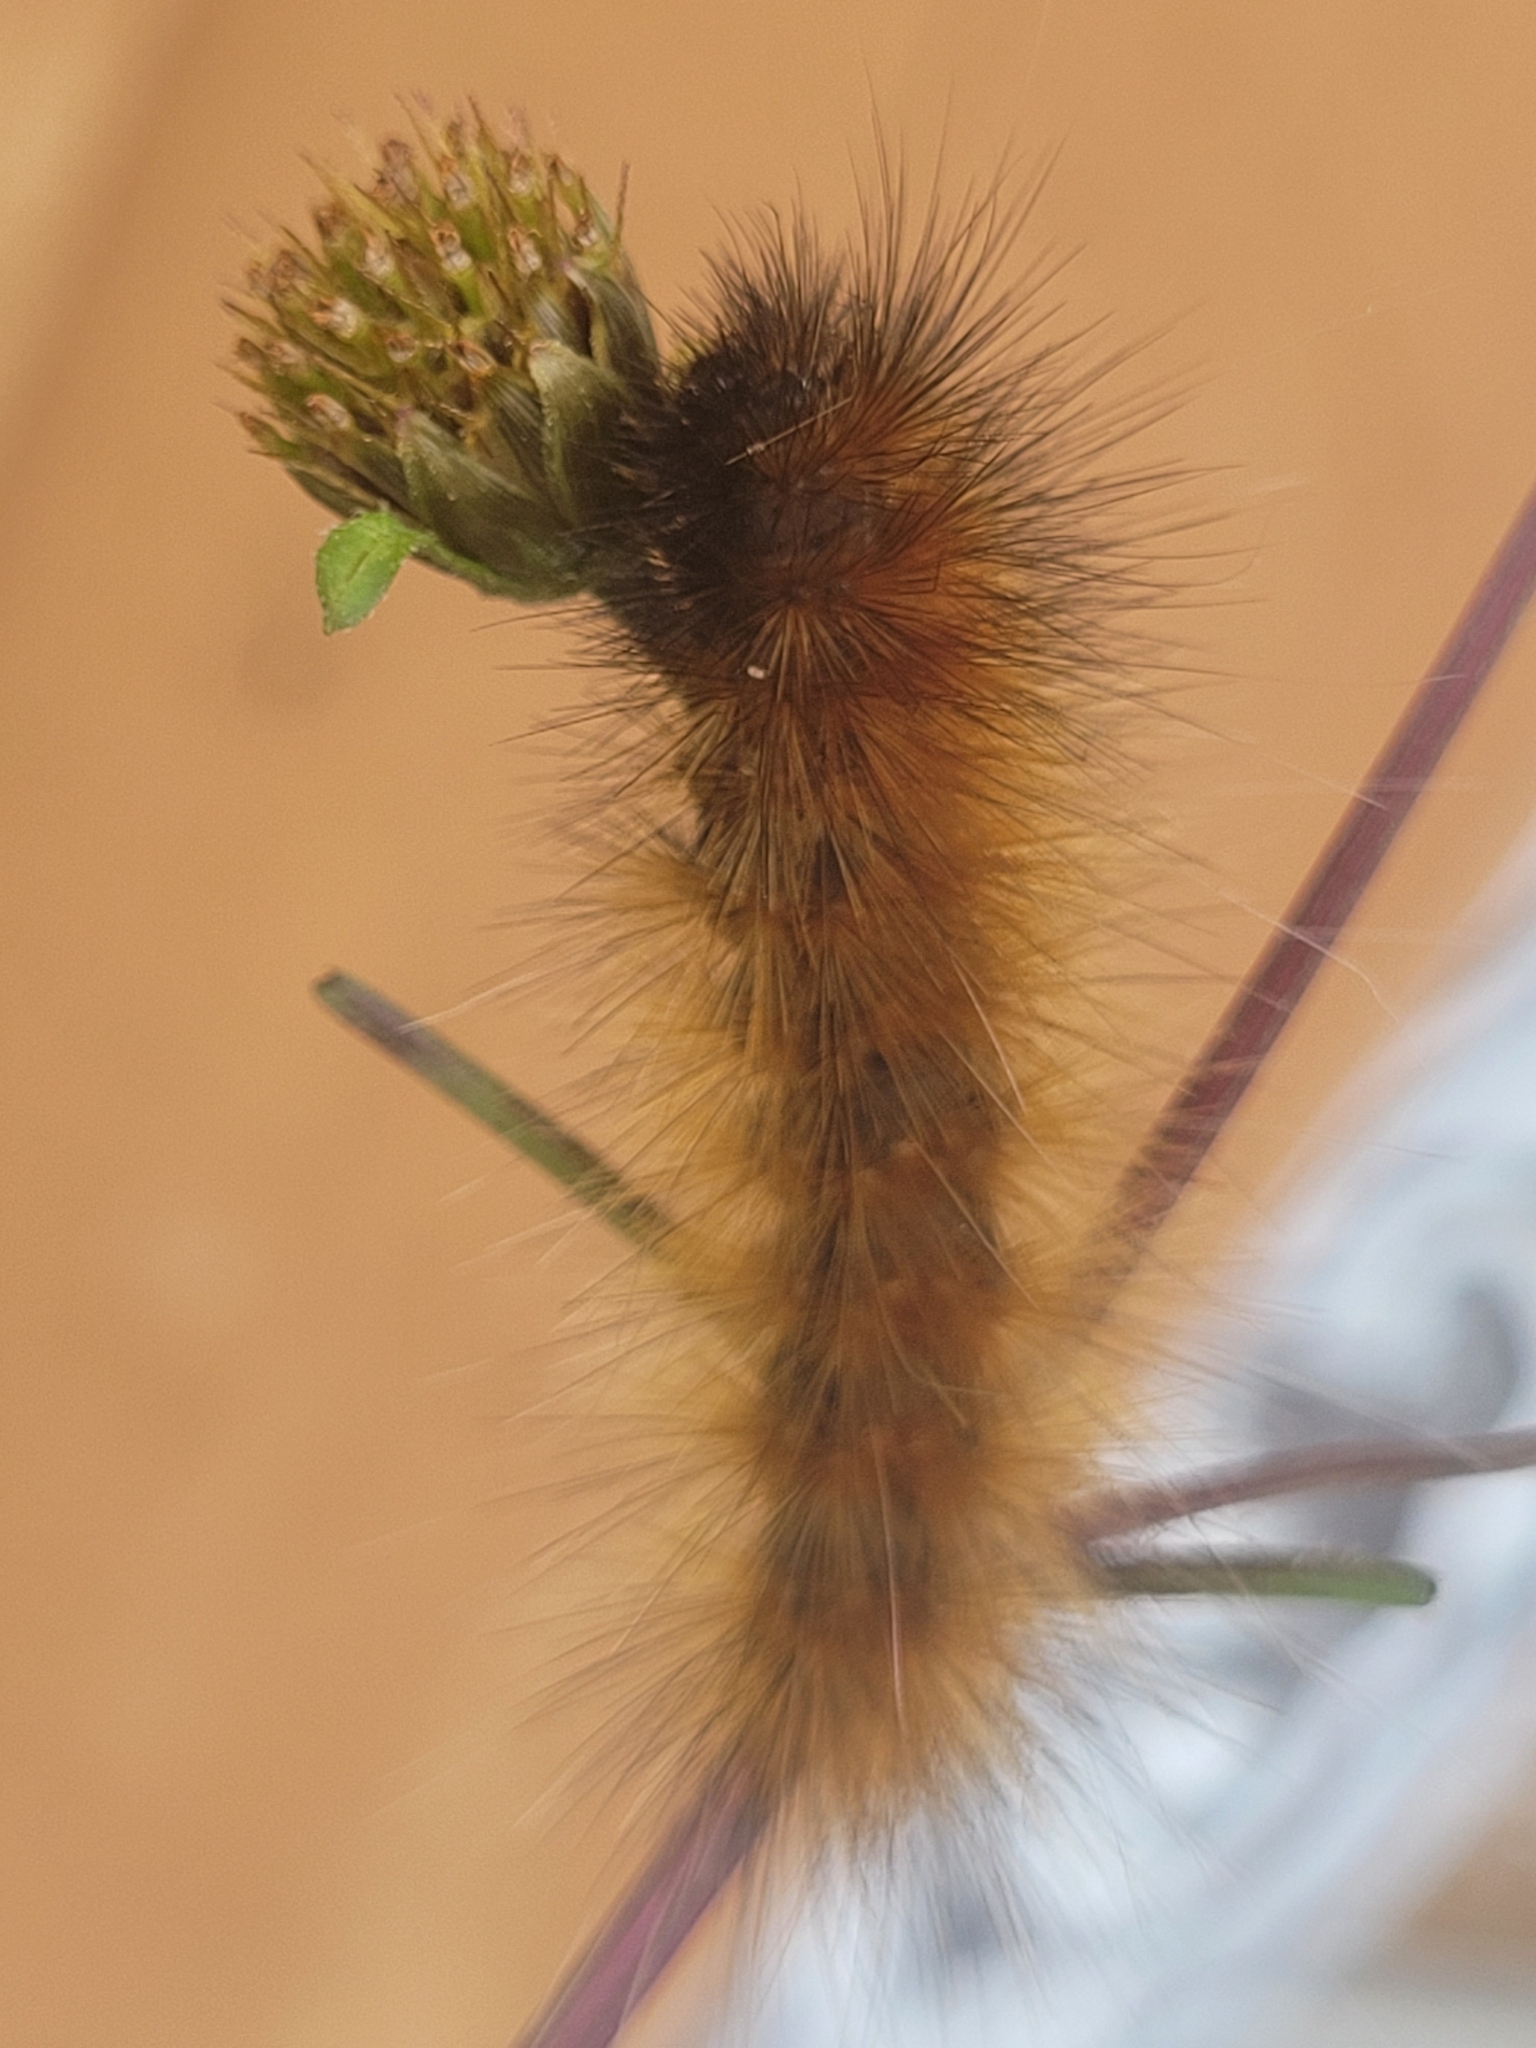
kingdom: Animalia
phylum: Arthropoda
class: Insecta
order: Lepidoptera
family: Erebidae
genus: Spilosoma
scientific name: Spilosoma virginica
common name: Virginia tiger moth
